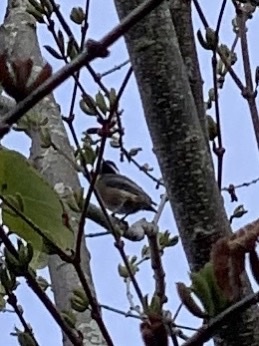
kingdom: Animalia
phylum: Chordata
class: Aves
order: Passeriformes
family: Paridae
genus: Poecile
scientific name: Poecile atricapillus
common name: Black-capped chickadee
